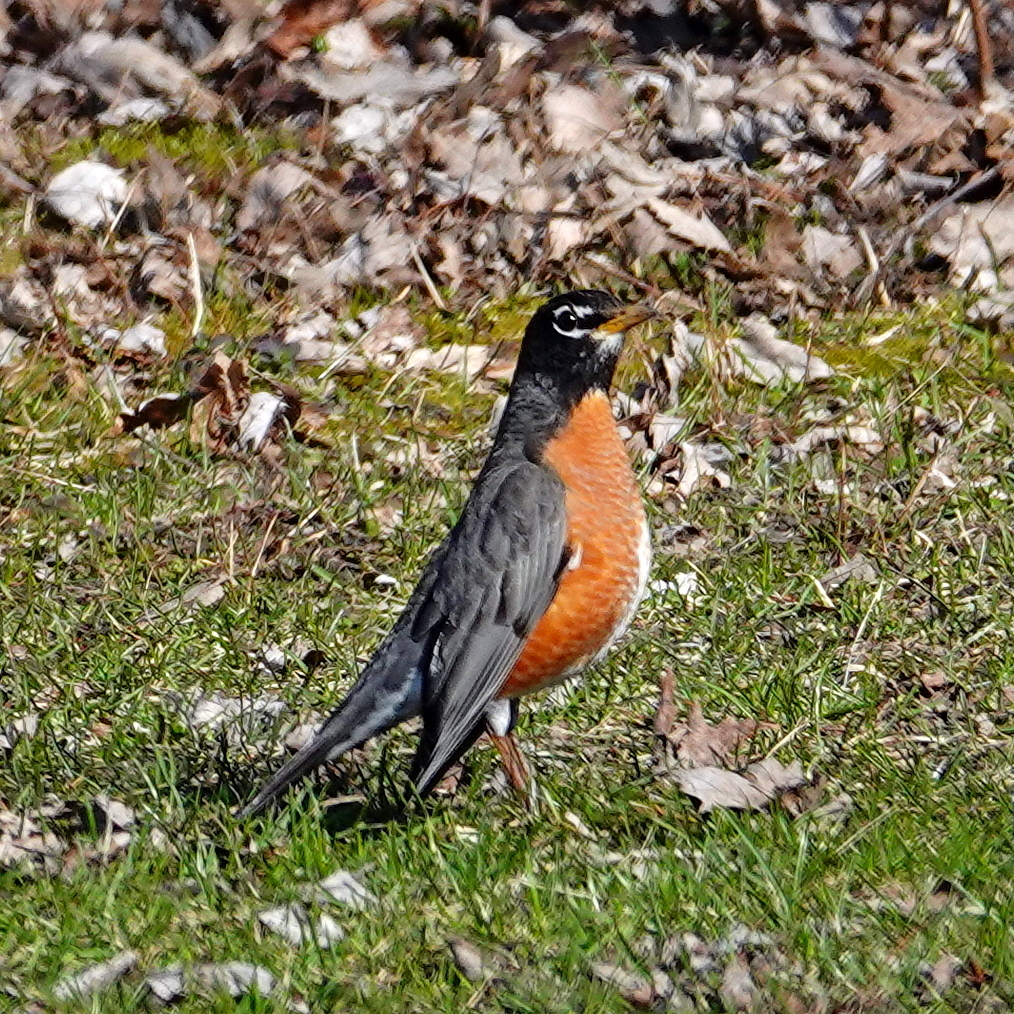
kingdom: Animalia
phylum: Chordata
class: Aves
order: Passeriformes
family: Turdidae
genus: Turdus
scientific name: Turdus migratorius
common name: American robin
